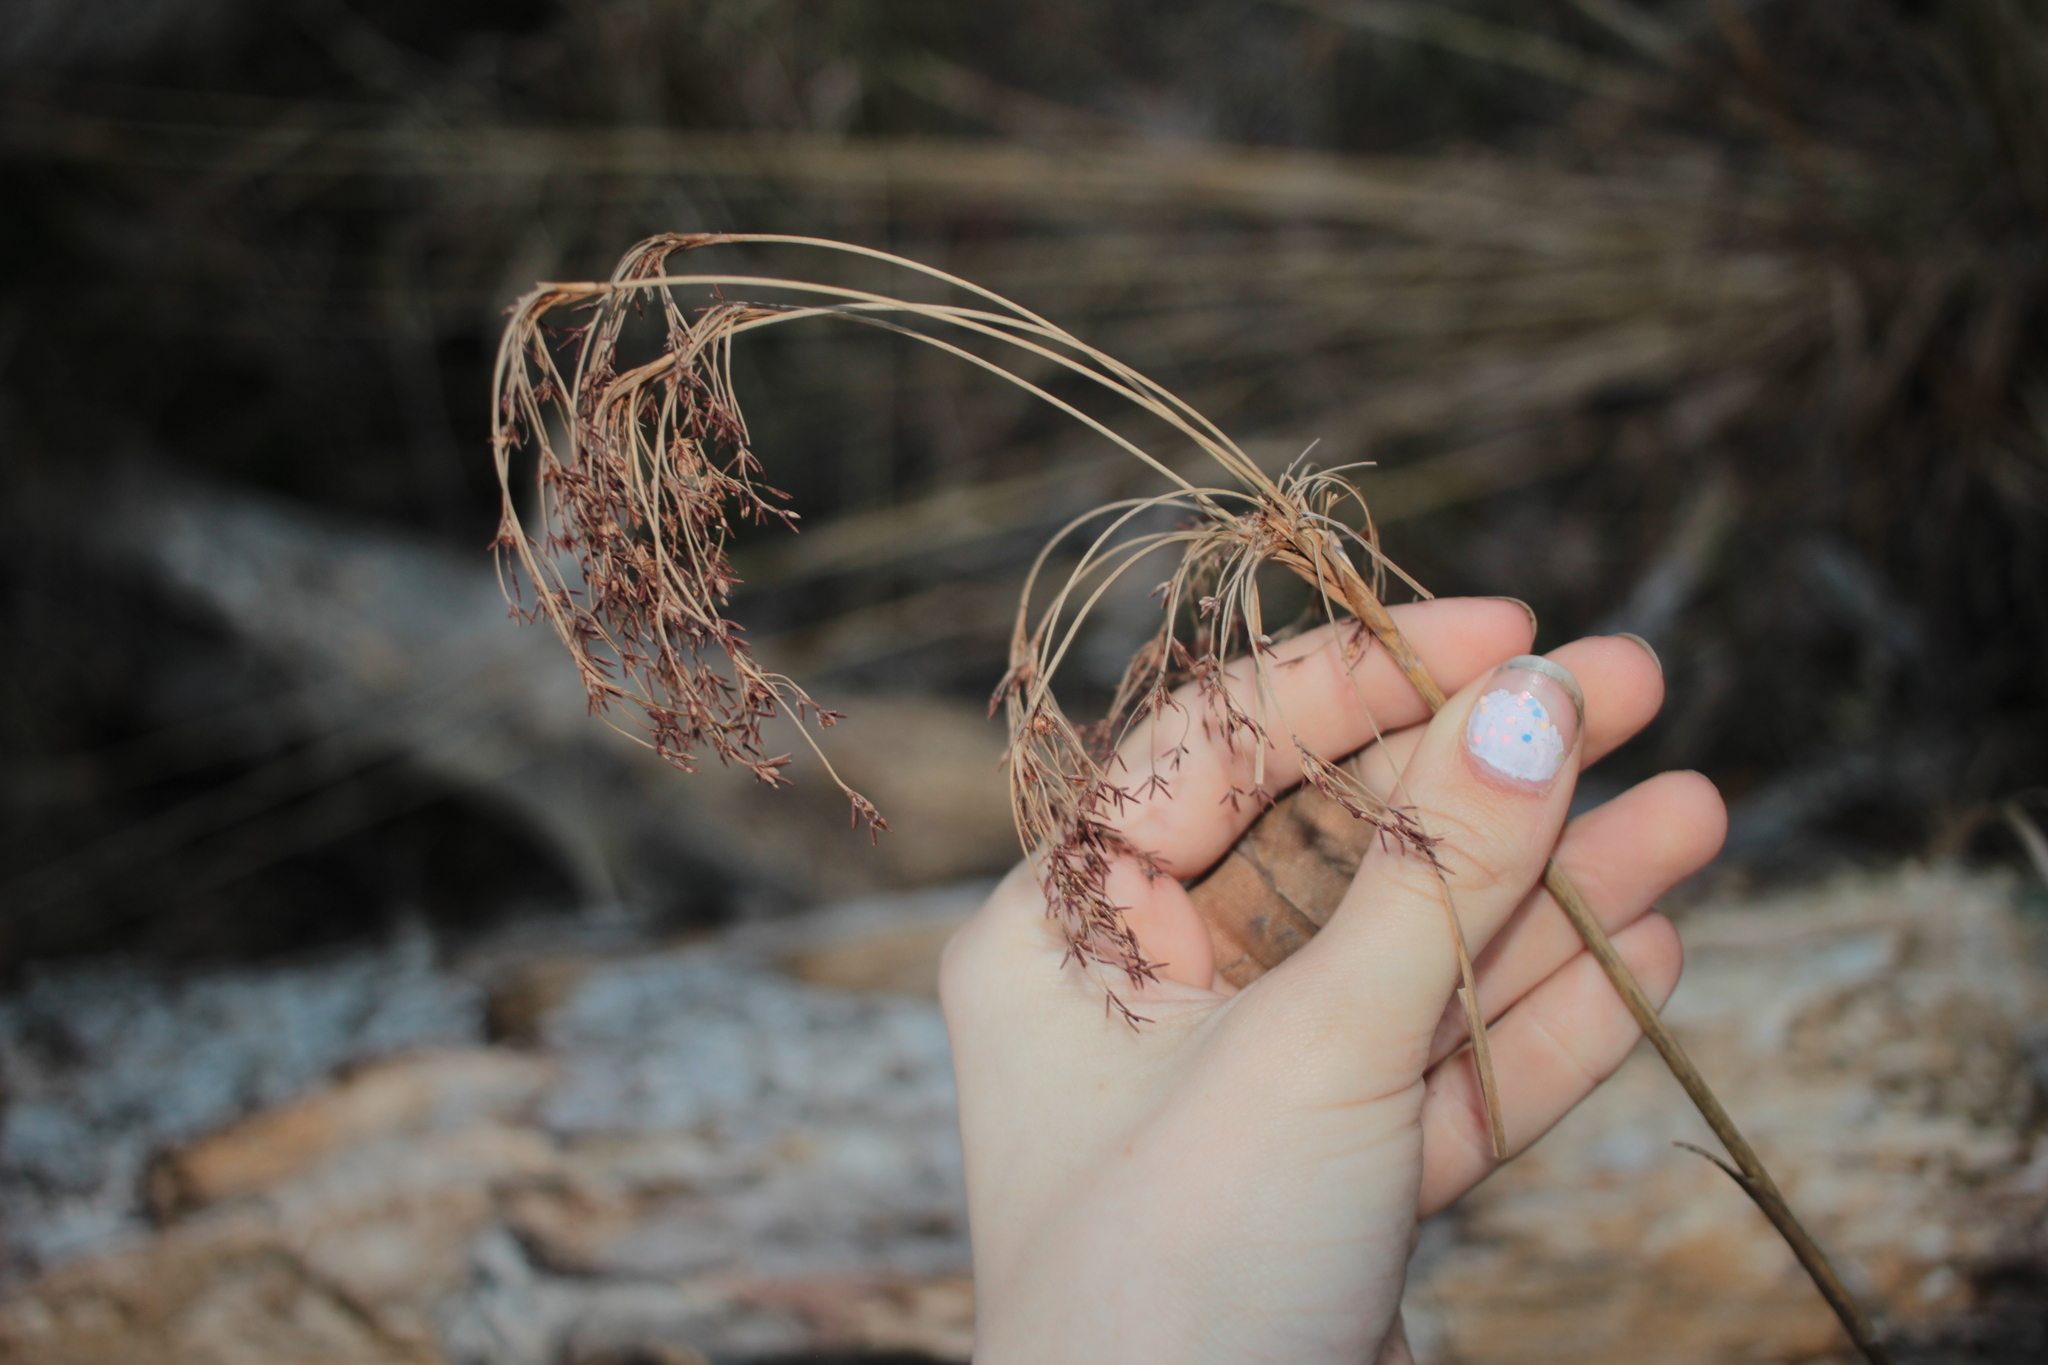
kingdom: Plantae
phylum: Tracheophyta
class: Liliopsida
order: Poales
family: Cyperaceae
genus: Scirpus
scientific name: Scirpus cyperinus
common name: Black-sheathed bulrush
